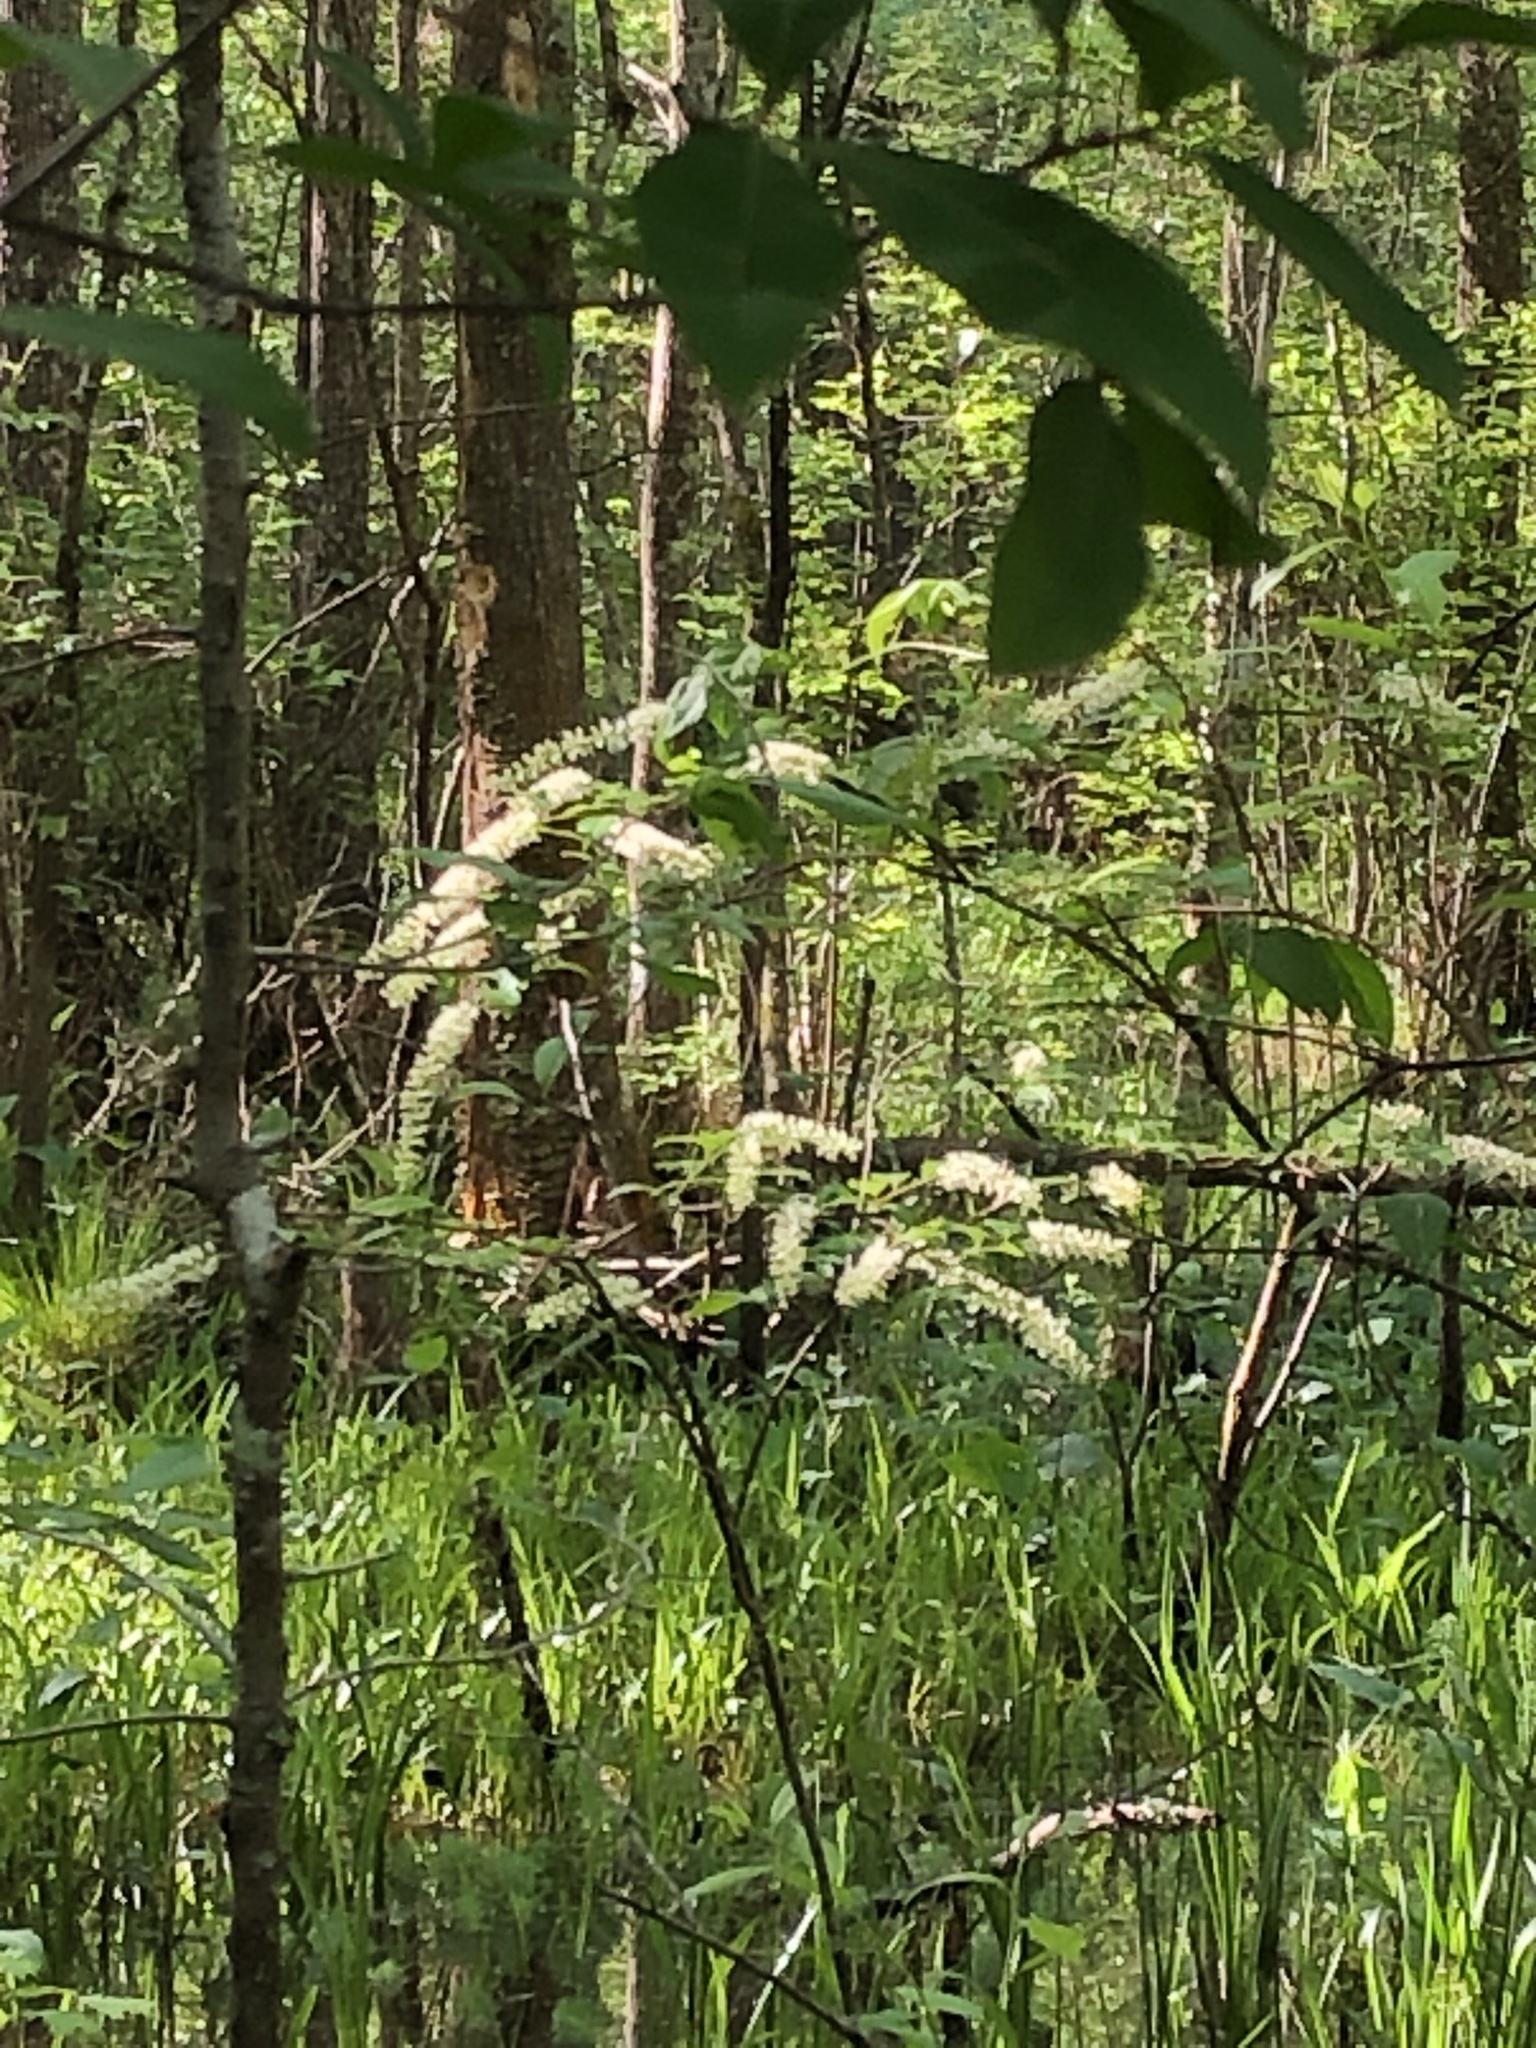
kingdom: Plantae
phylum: Tracheophyta
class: Magnoliopsida
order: Saxifragales
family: Iteaceae
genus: Itea
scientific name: Itea virginica
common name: Sweetspire
